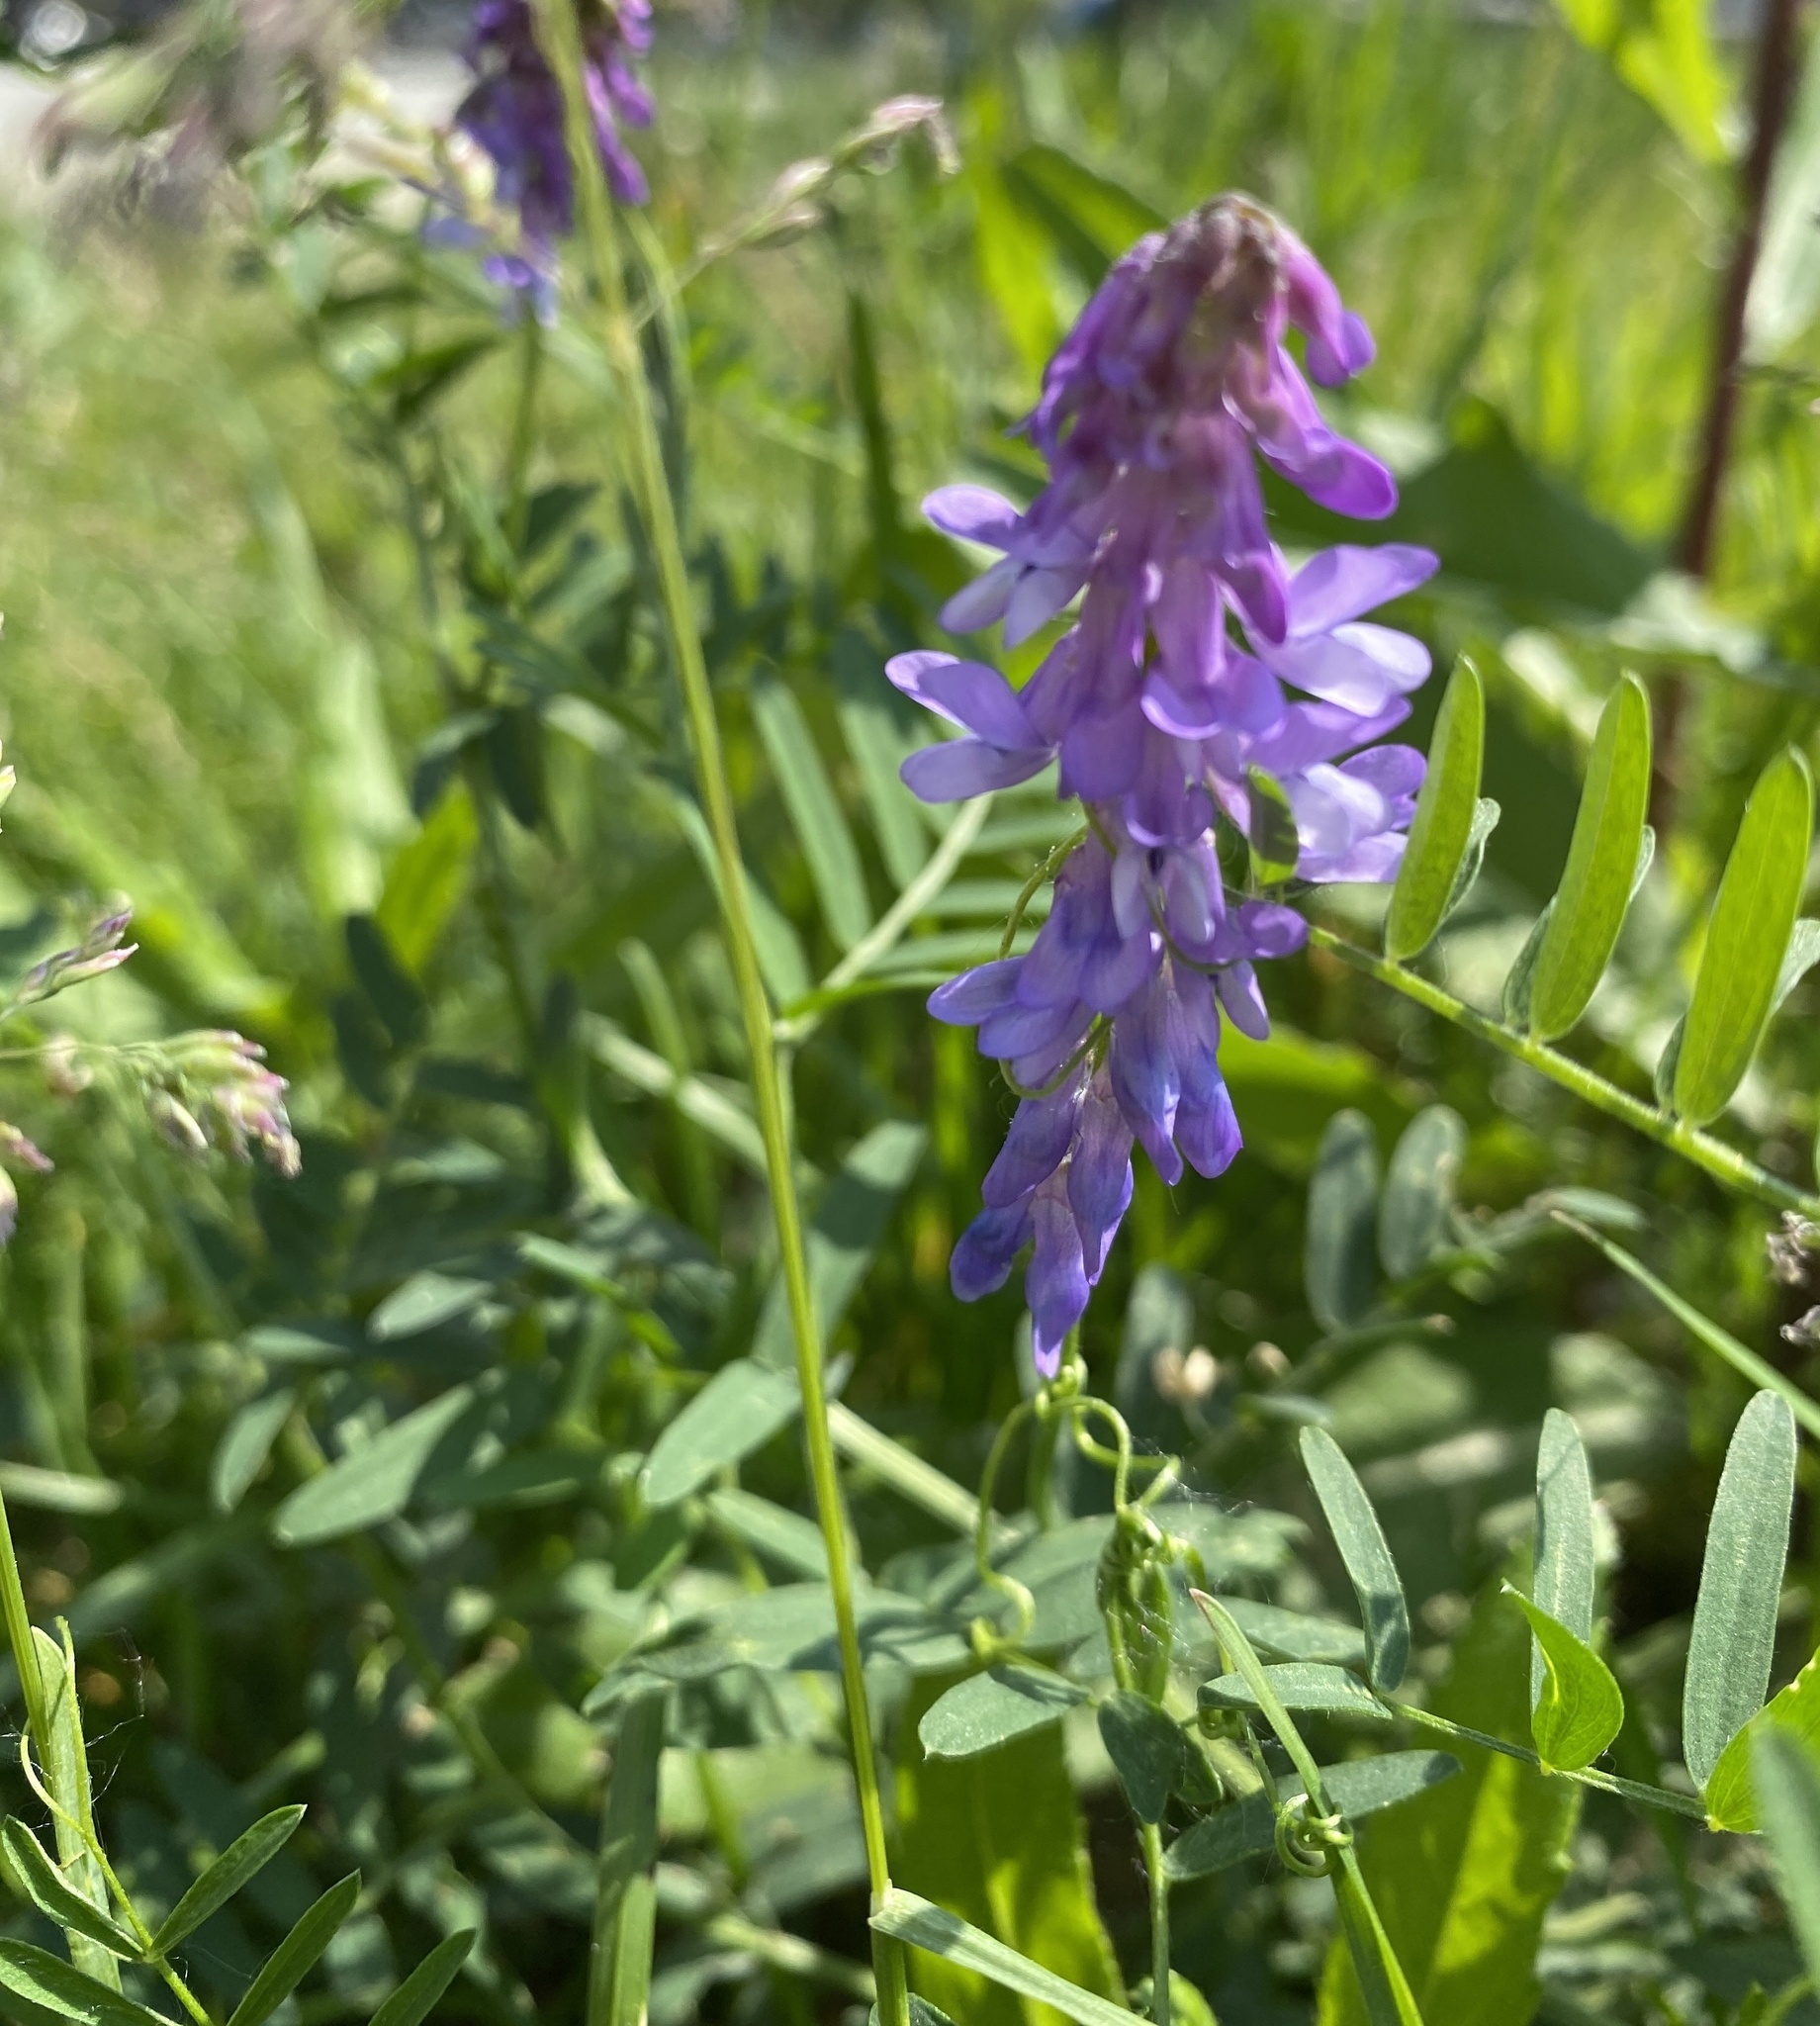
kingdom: Plantae
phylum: Tracheophyta
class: Magnoliopsida
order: Fabales
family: Fabaceae
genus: Vicia
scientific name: Vicia cracca
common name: Bird vetch
